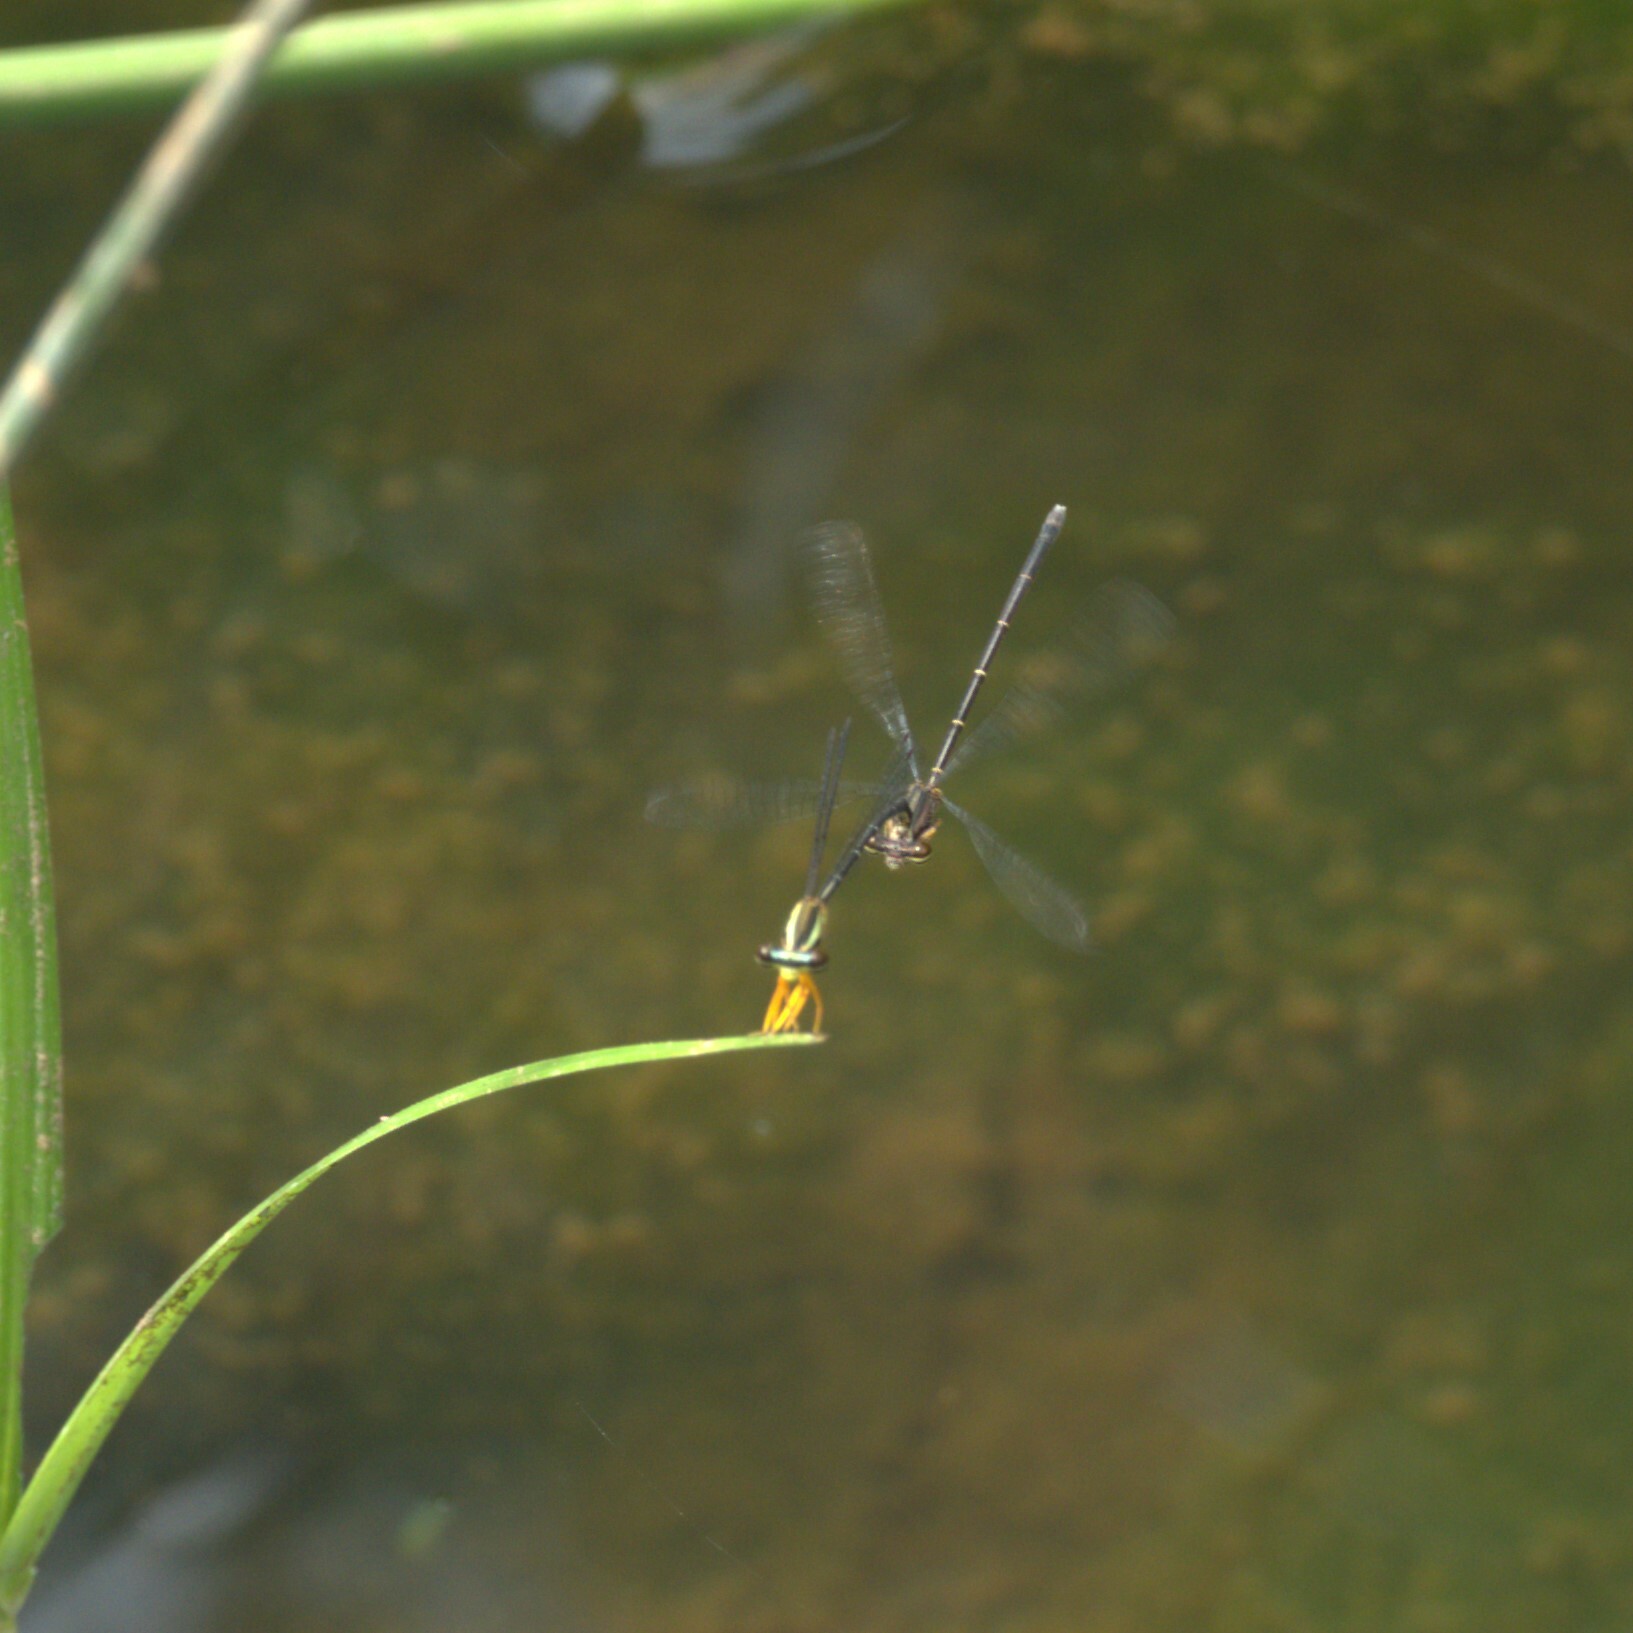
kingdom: Animalia
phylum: Arthropoda
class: Insecta
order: Odonata
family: Platycnemididae
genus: Copera
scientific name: Copera vittata
